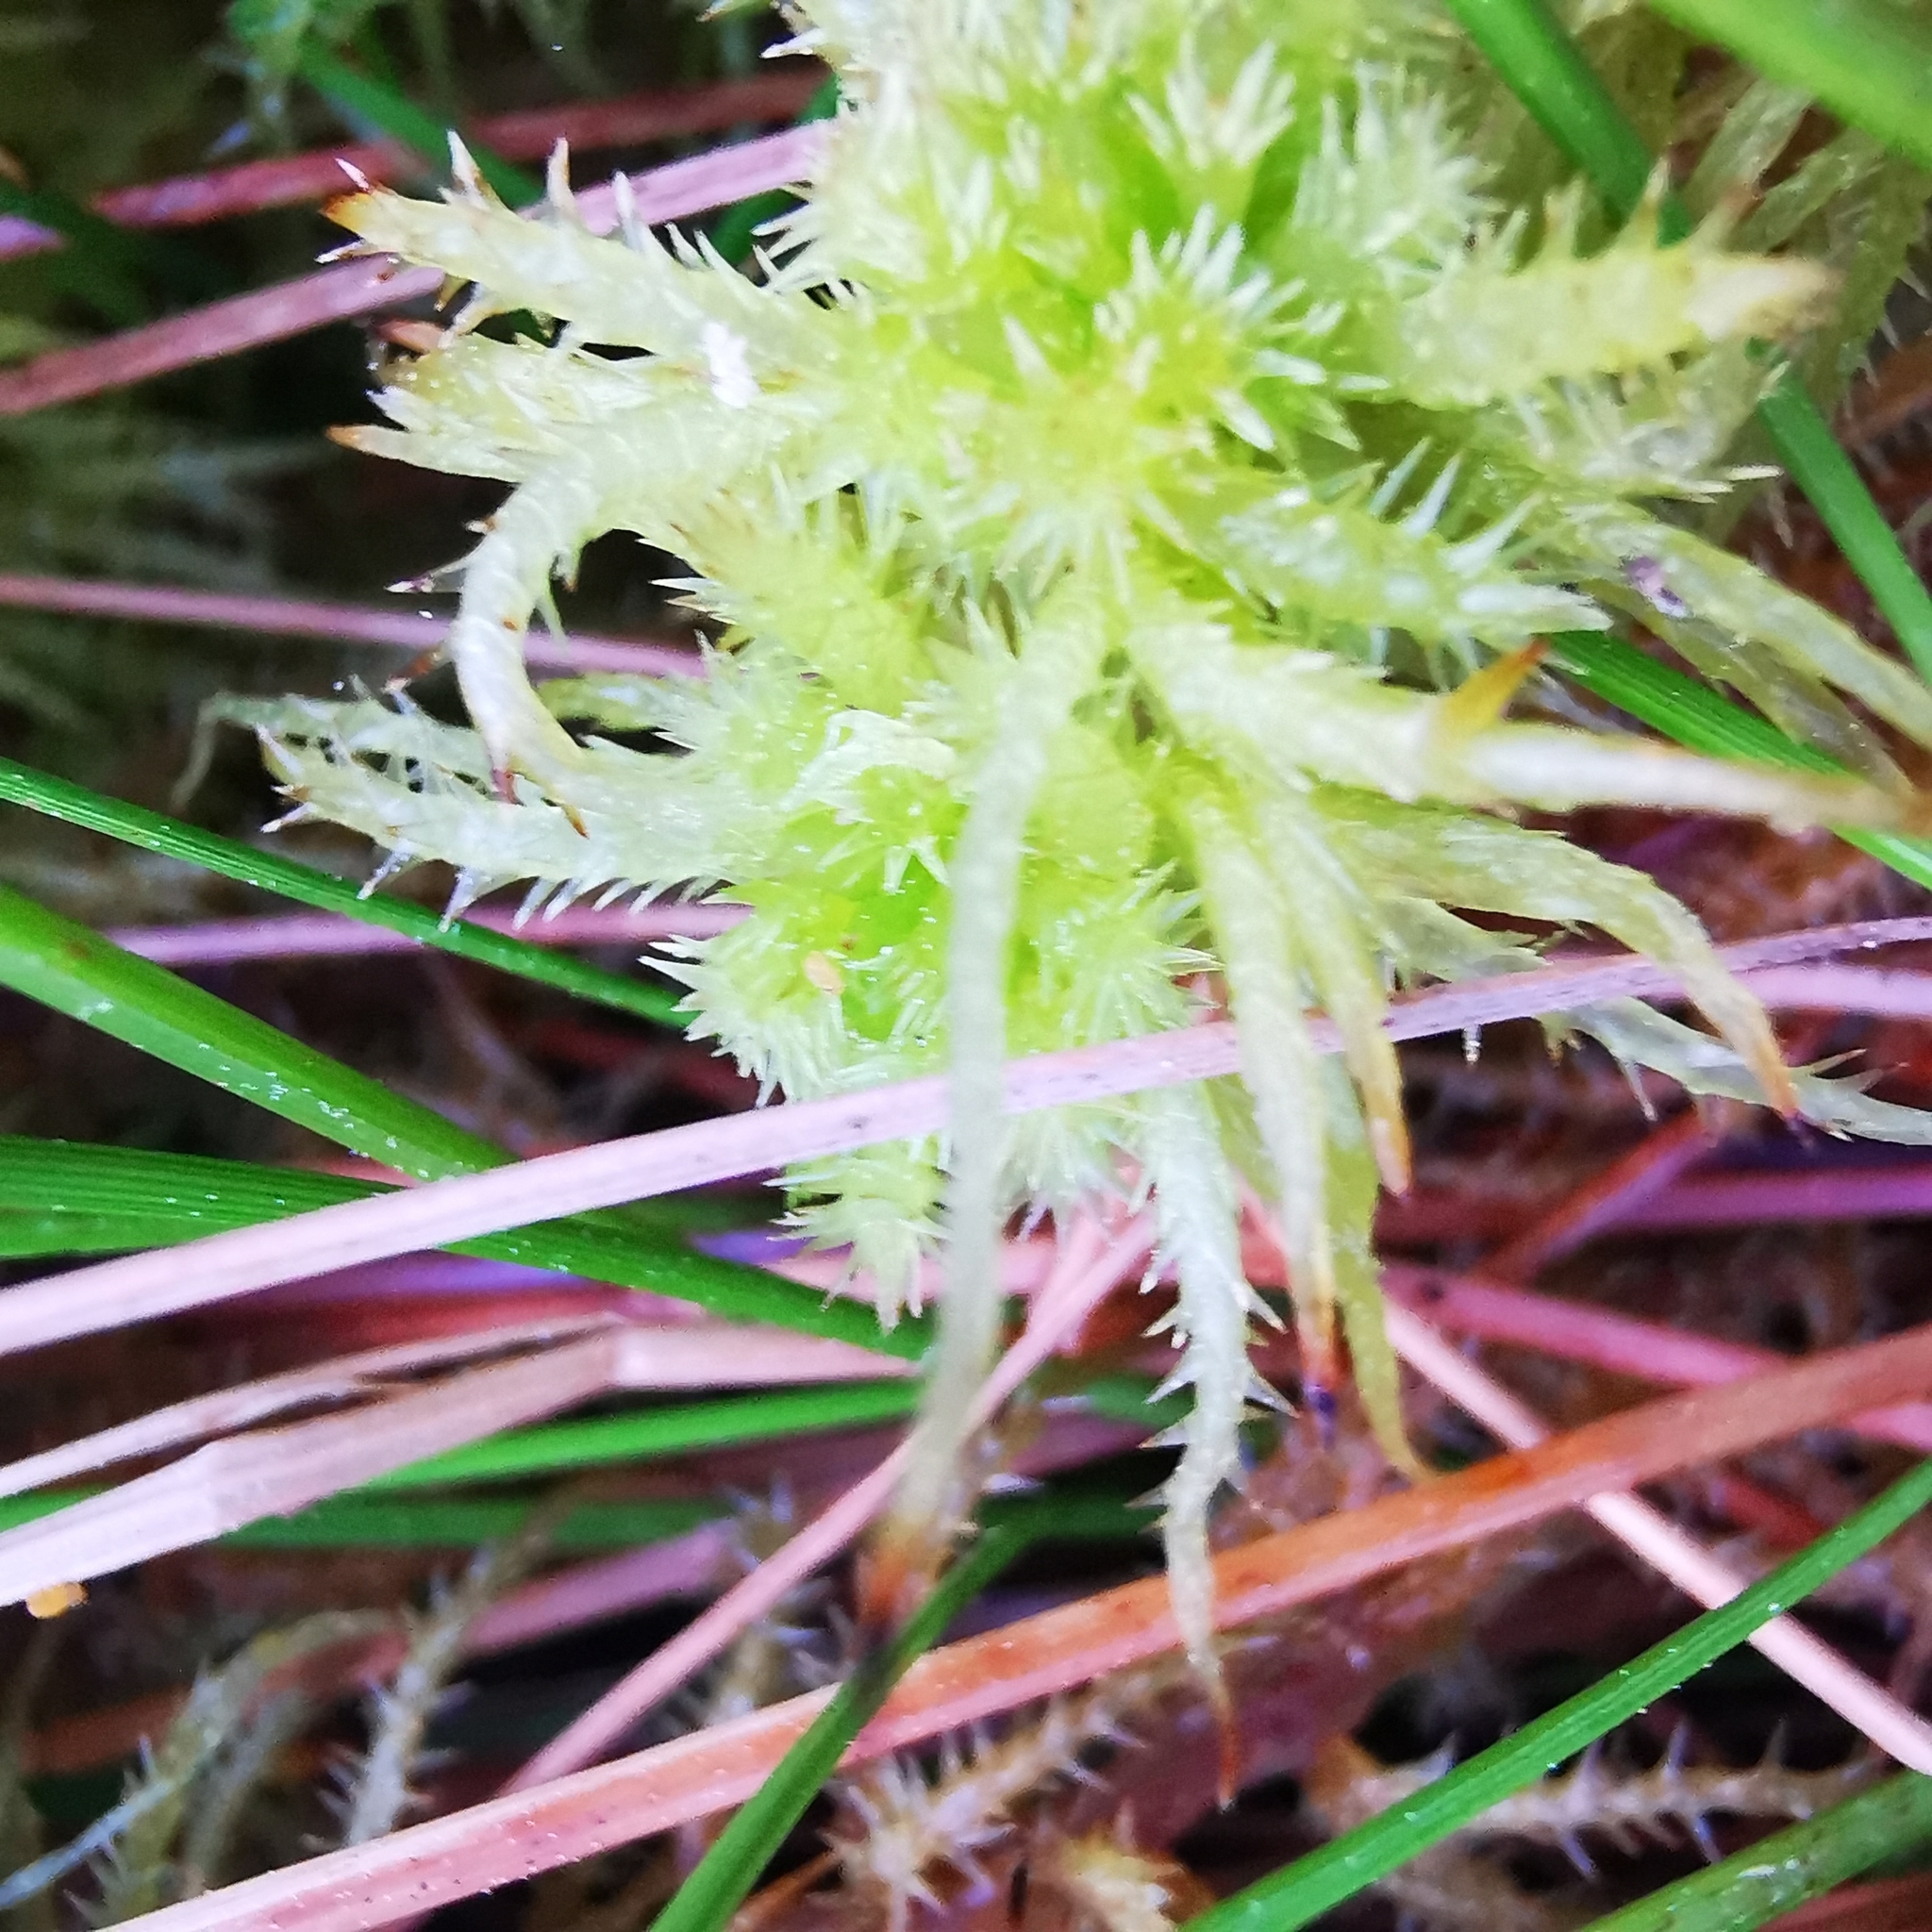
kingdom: Plantae
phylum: Bryophyta
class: Sphagnopsida
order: Sphagnales
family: Sphagnaceae
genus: Sphagnum
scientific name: Sphagnum squarrosum
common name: Shaggy peat moss
